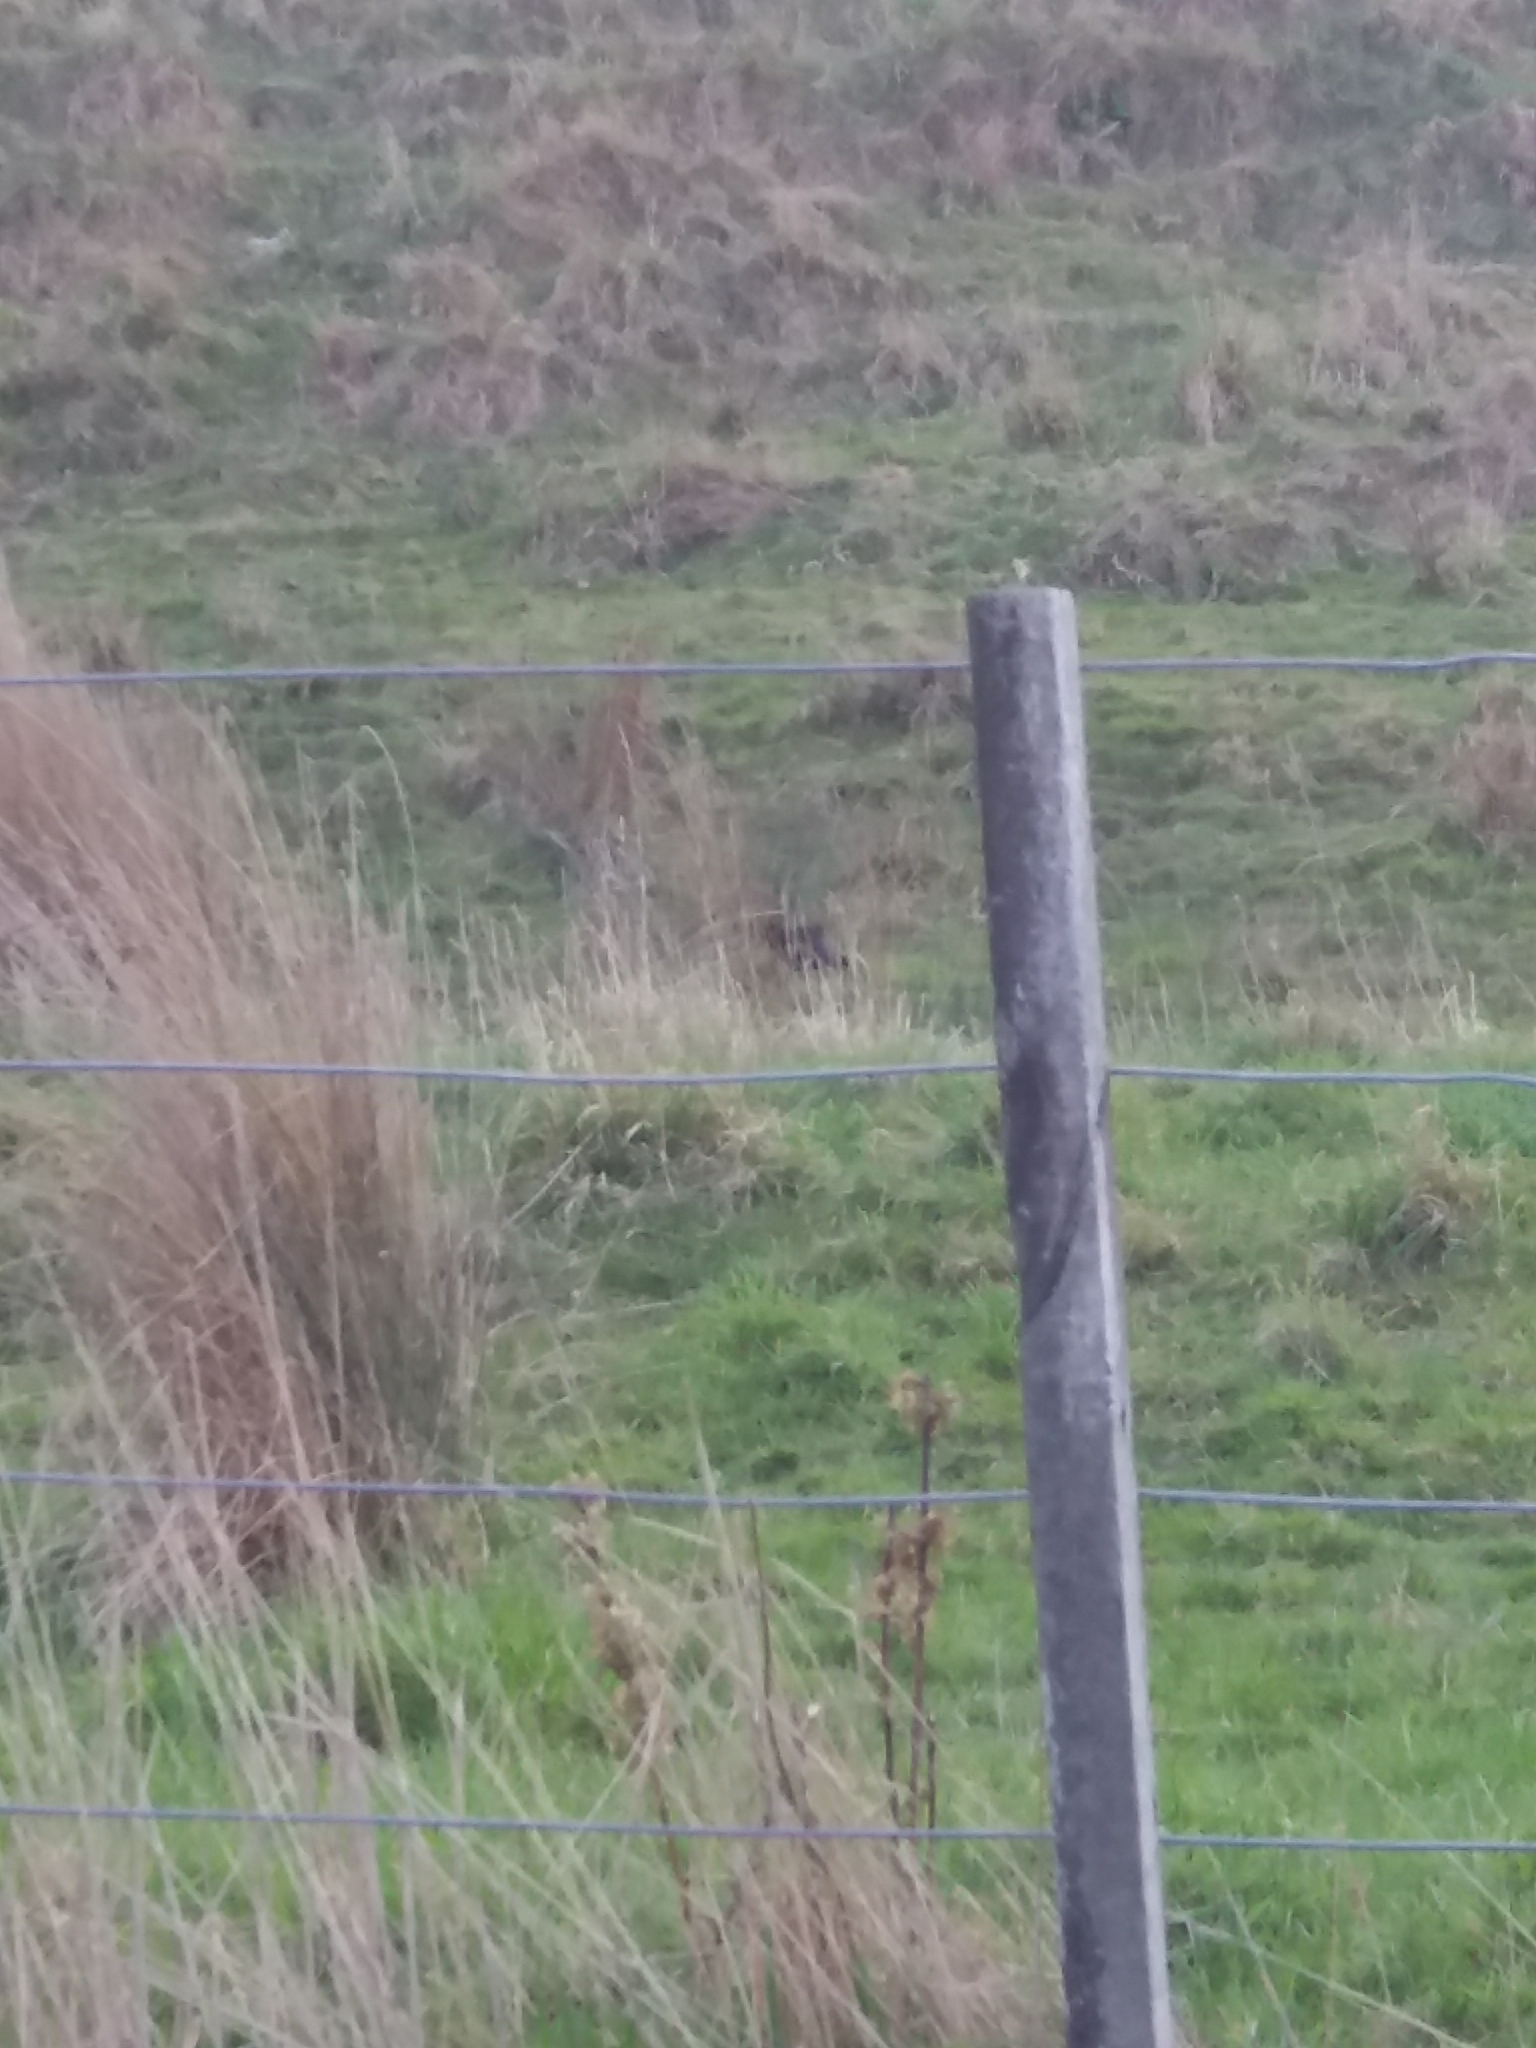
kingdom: Animalia
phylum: Chordata
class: Aves
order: Passeriformes
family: Fringillidae
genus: Carduelis
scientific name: Carduelis carduelis
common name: European goldfinch
